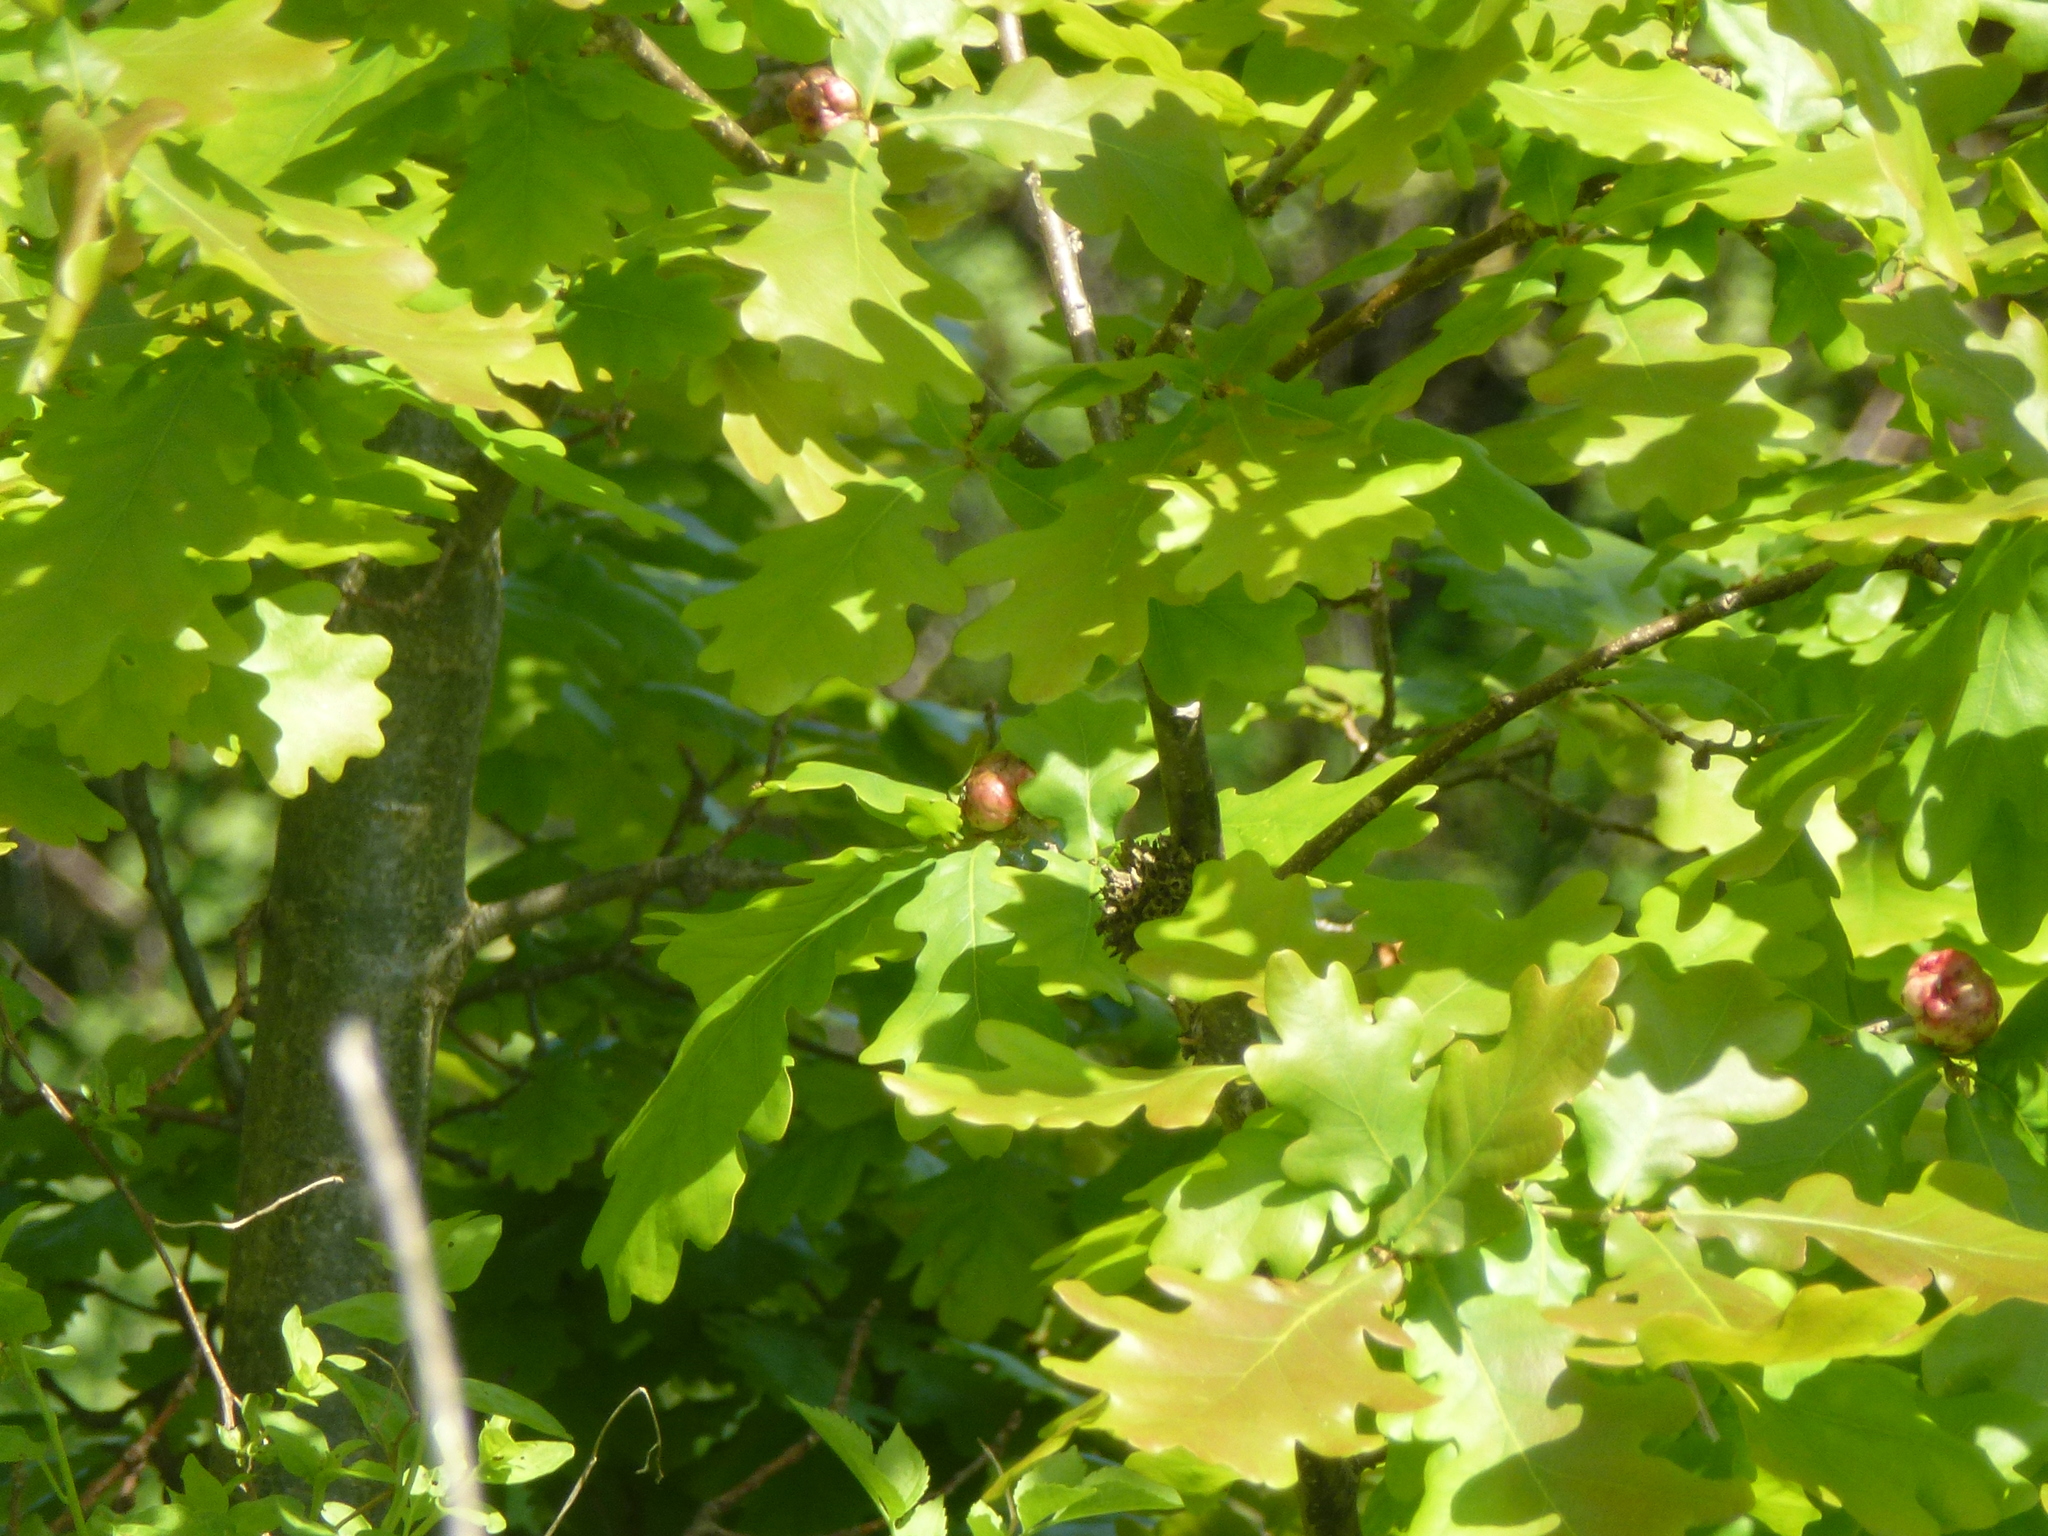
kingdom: Animalia
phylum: Arthropoda
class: Insecta
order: Hymenoptera
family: Cynipidae
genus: Biorhiza
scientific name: Biorhiza pallida
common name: Oak apple
